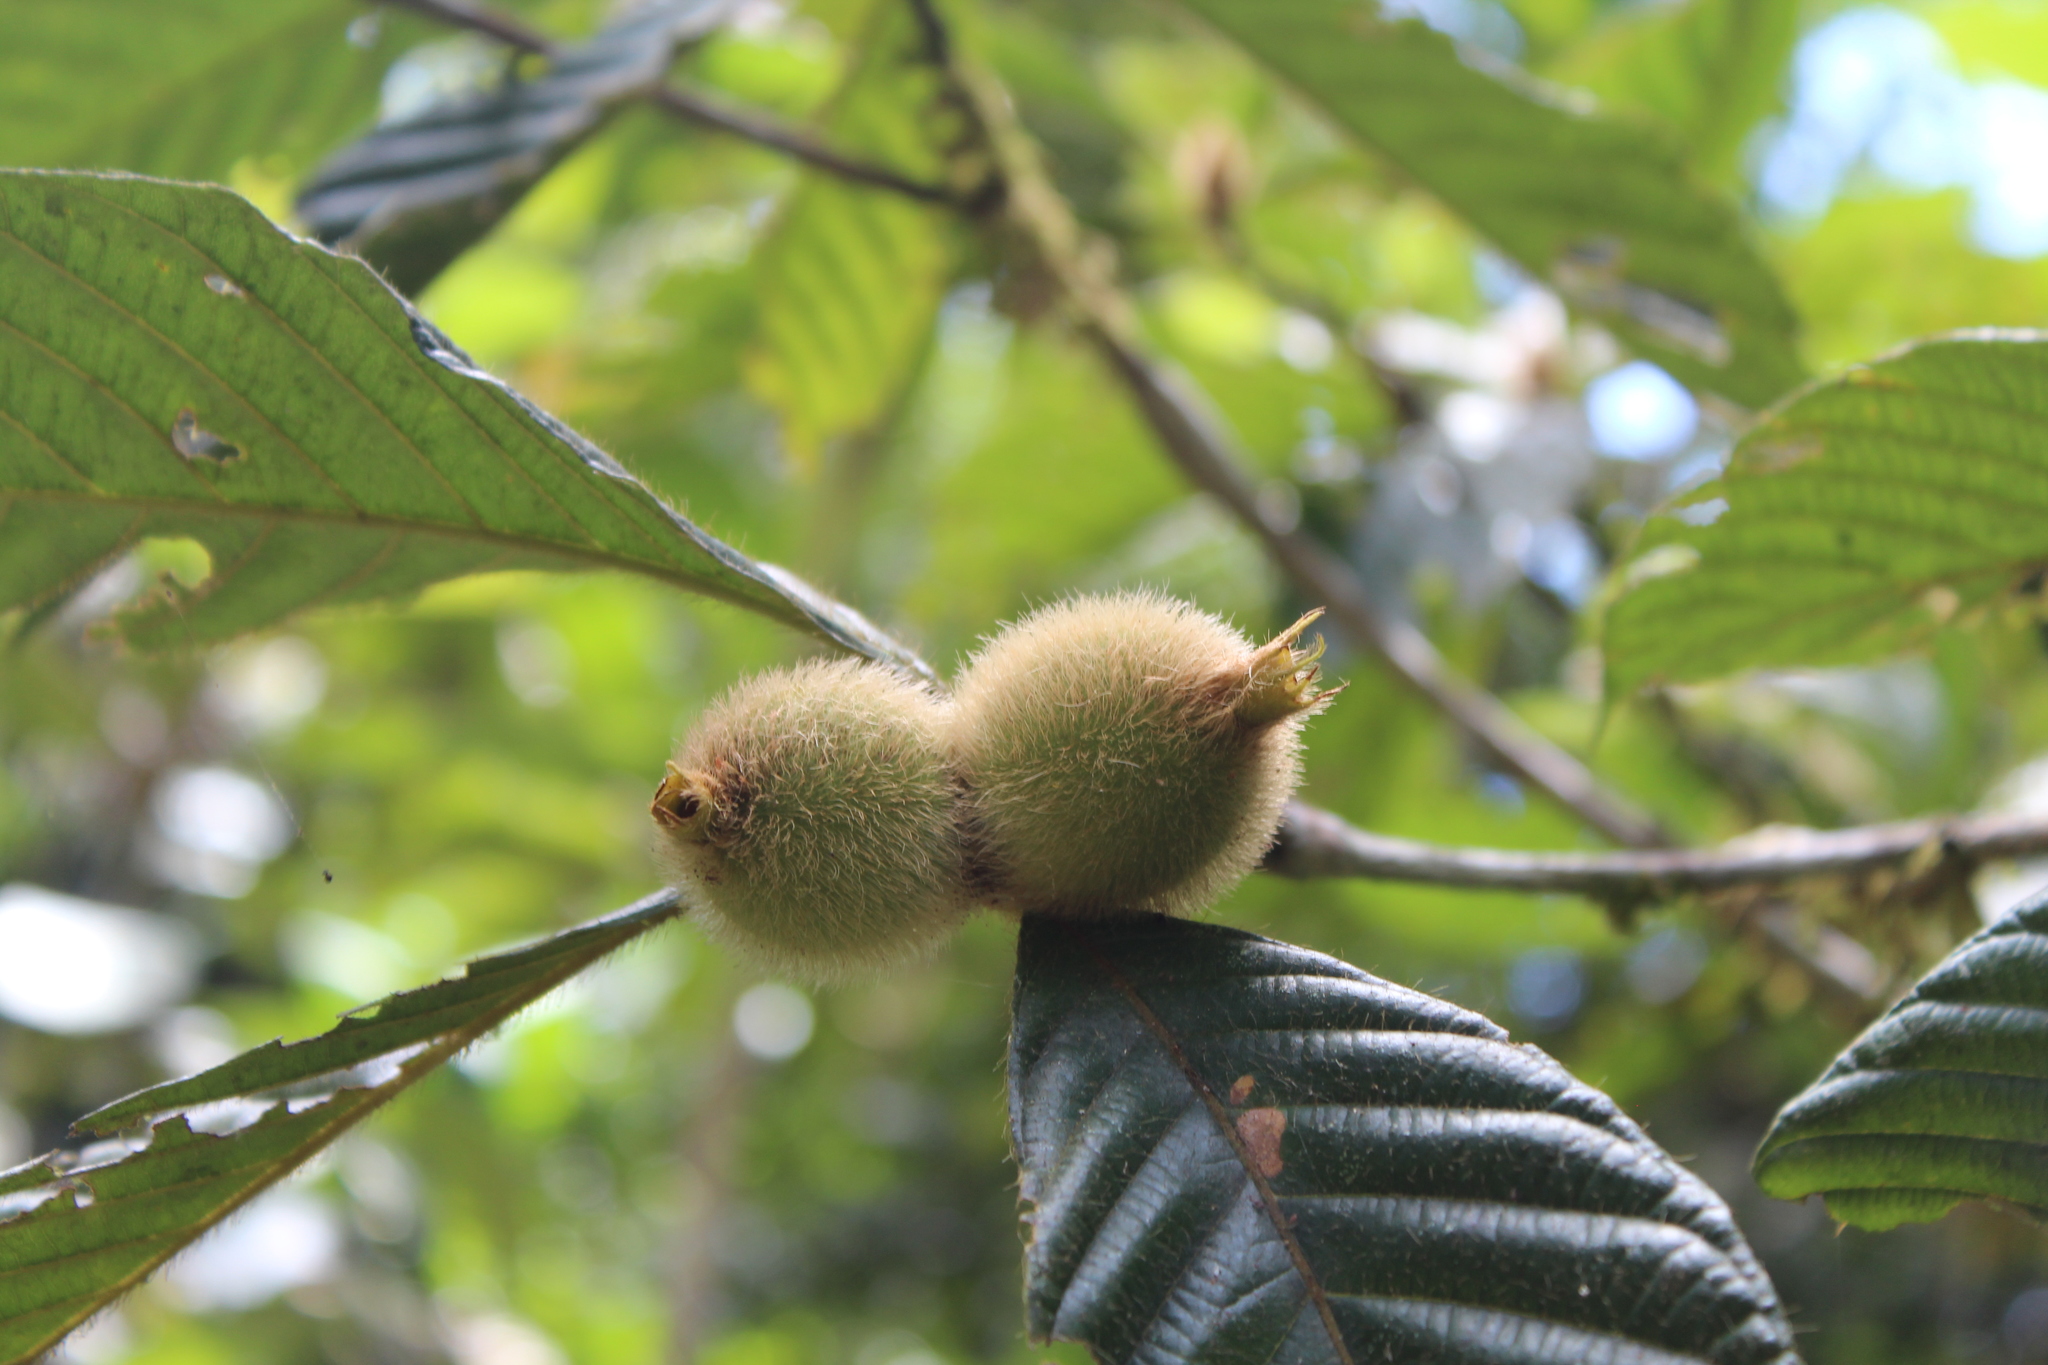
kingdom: Plantae
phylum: Tracheophyta
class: Magnoliopsida
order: Gentianales
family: Rubiaceae
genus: Duroia
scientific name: Duroia hirsuta
